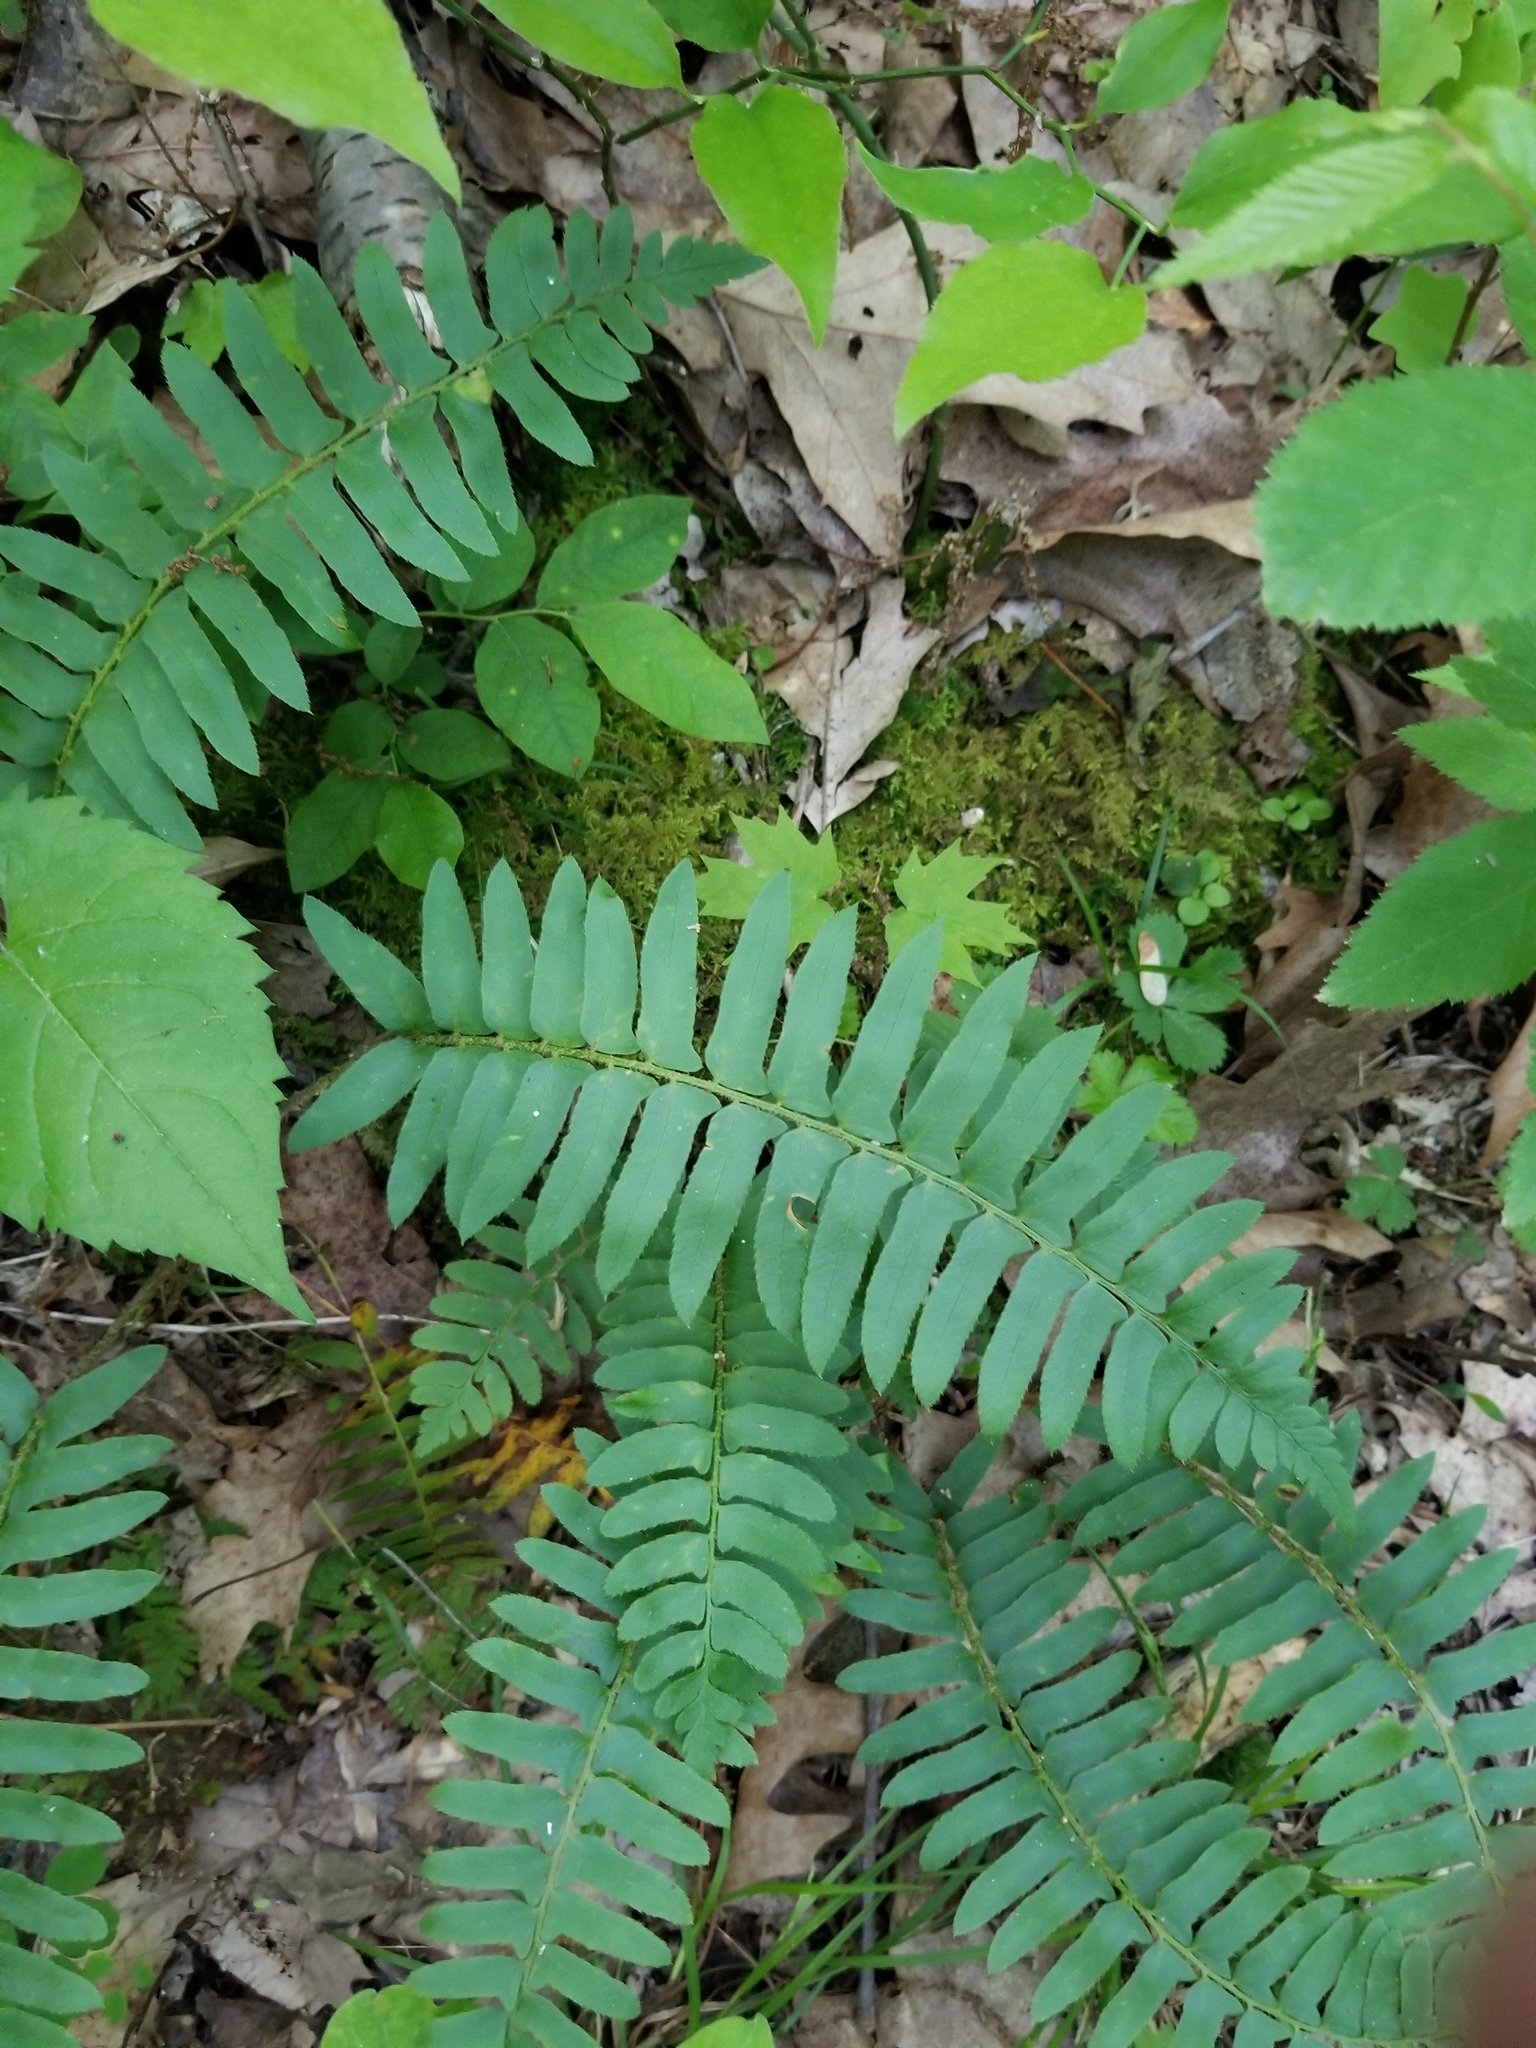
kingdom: Plantae
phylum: Tracheophyta
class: Polypodiopsida
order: Polypodiales
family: Dryopteridaceae
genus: Polystichum
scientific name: Polystichum acrostichoides
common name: Christmas fern
